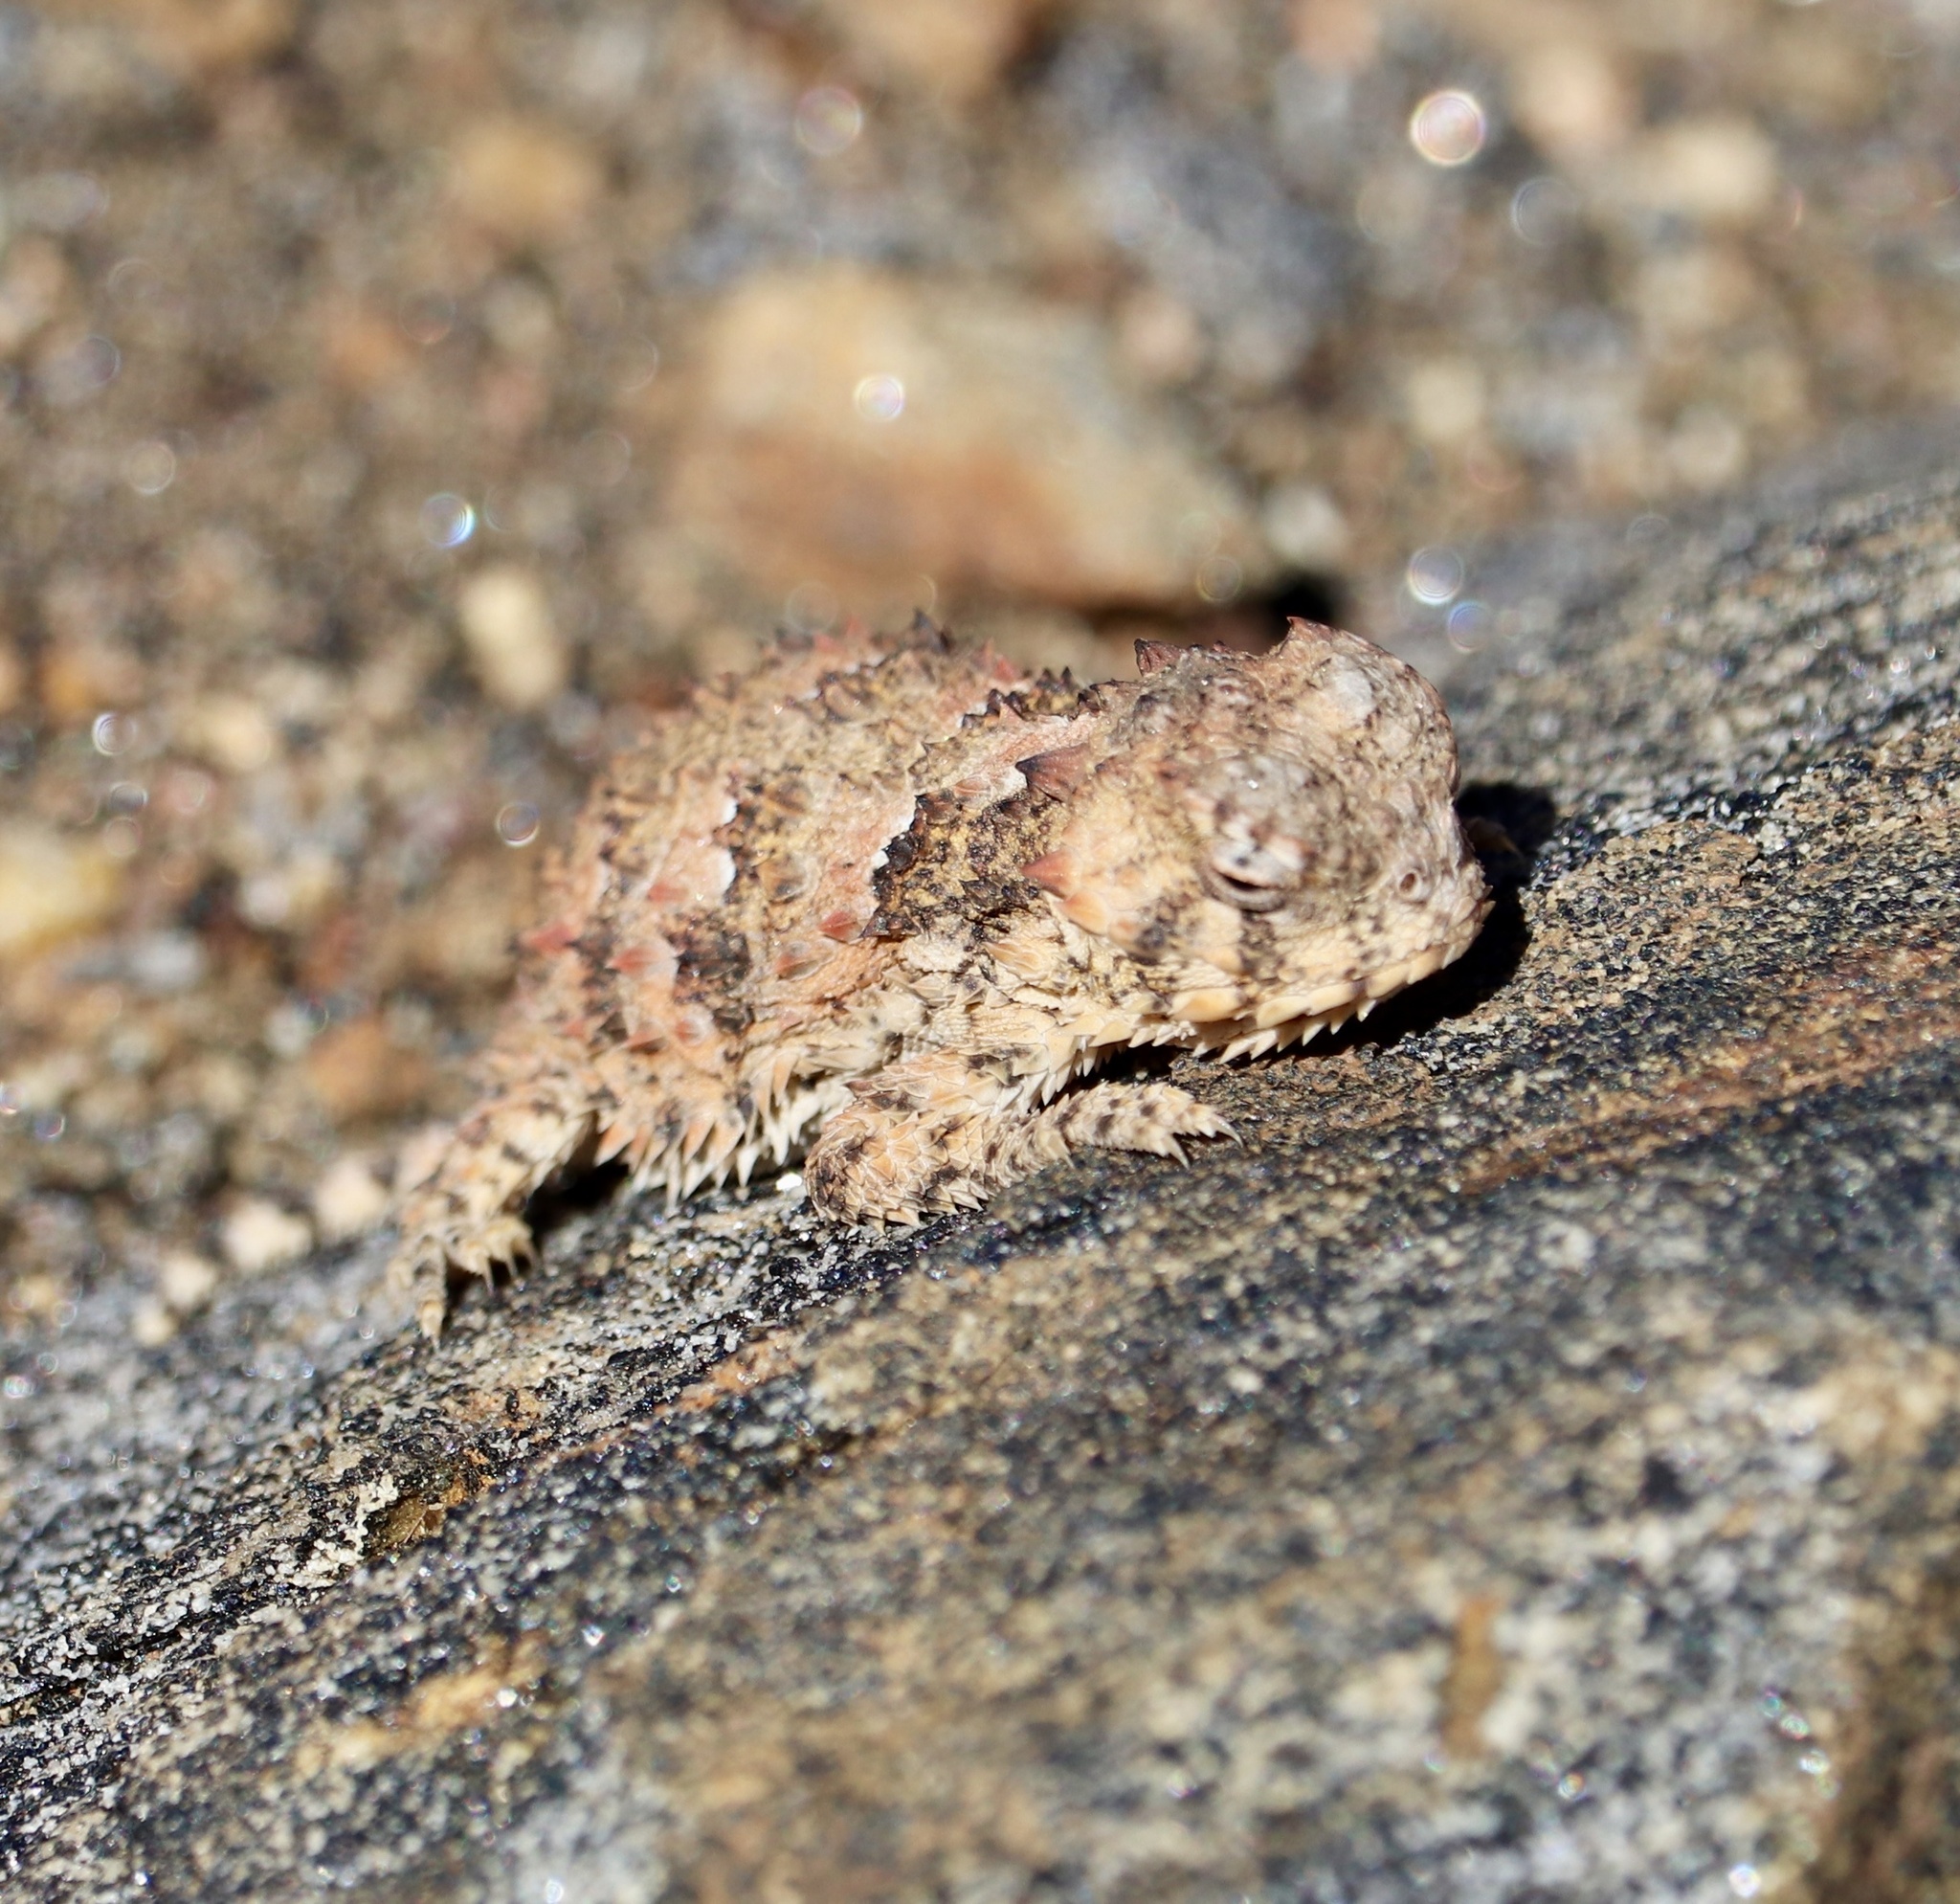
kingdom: Animalia
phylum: Chordata
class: Squamata
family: Phrynosomatidae
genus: Phrynosoma
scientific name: Phrynosoma blainvillii
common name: San diego horned lizard
